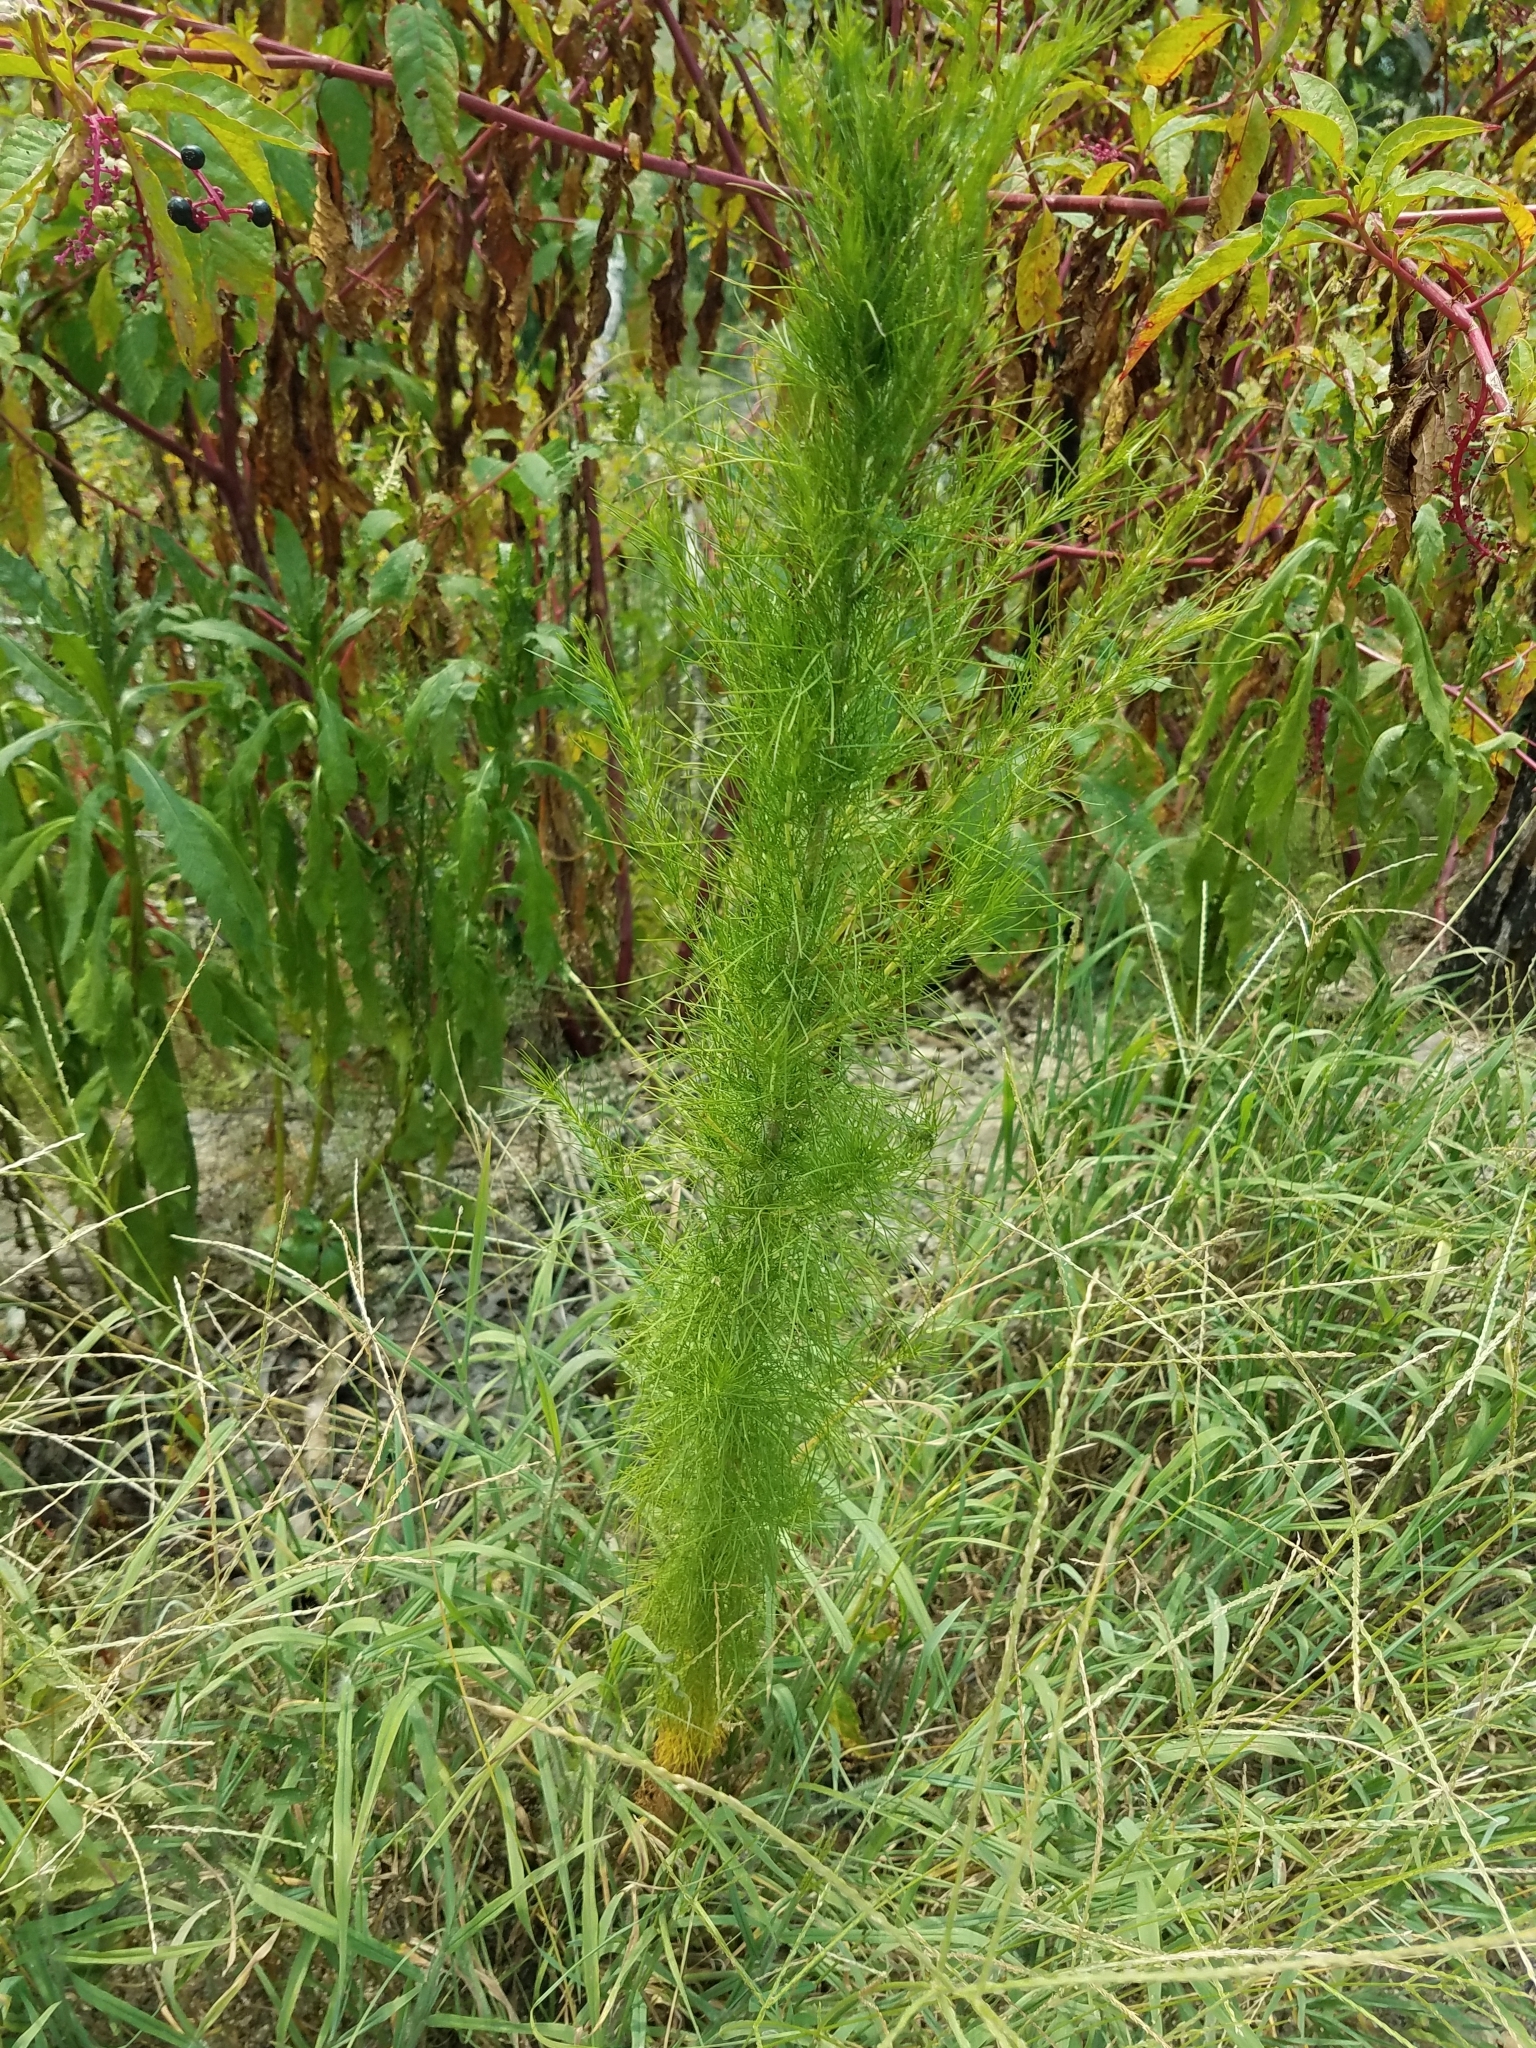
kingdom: Plantae
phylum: Tracheophyta
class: Magnoliopsida
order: Asterales
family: Asteraceae
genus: Eupatorium
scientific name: Eupatorium capillifolium
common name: Dog-fennel
